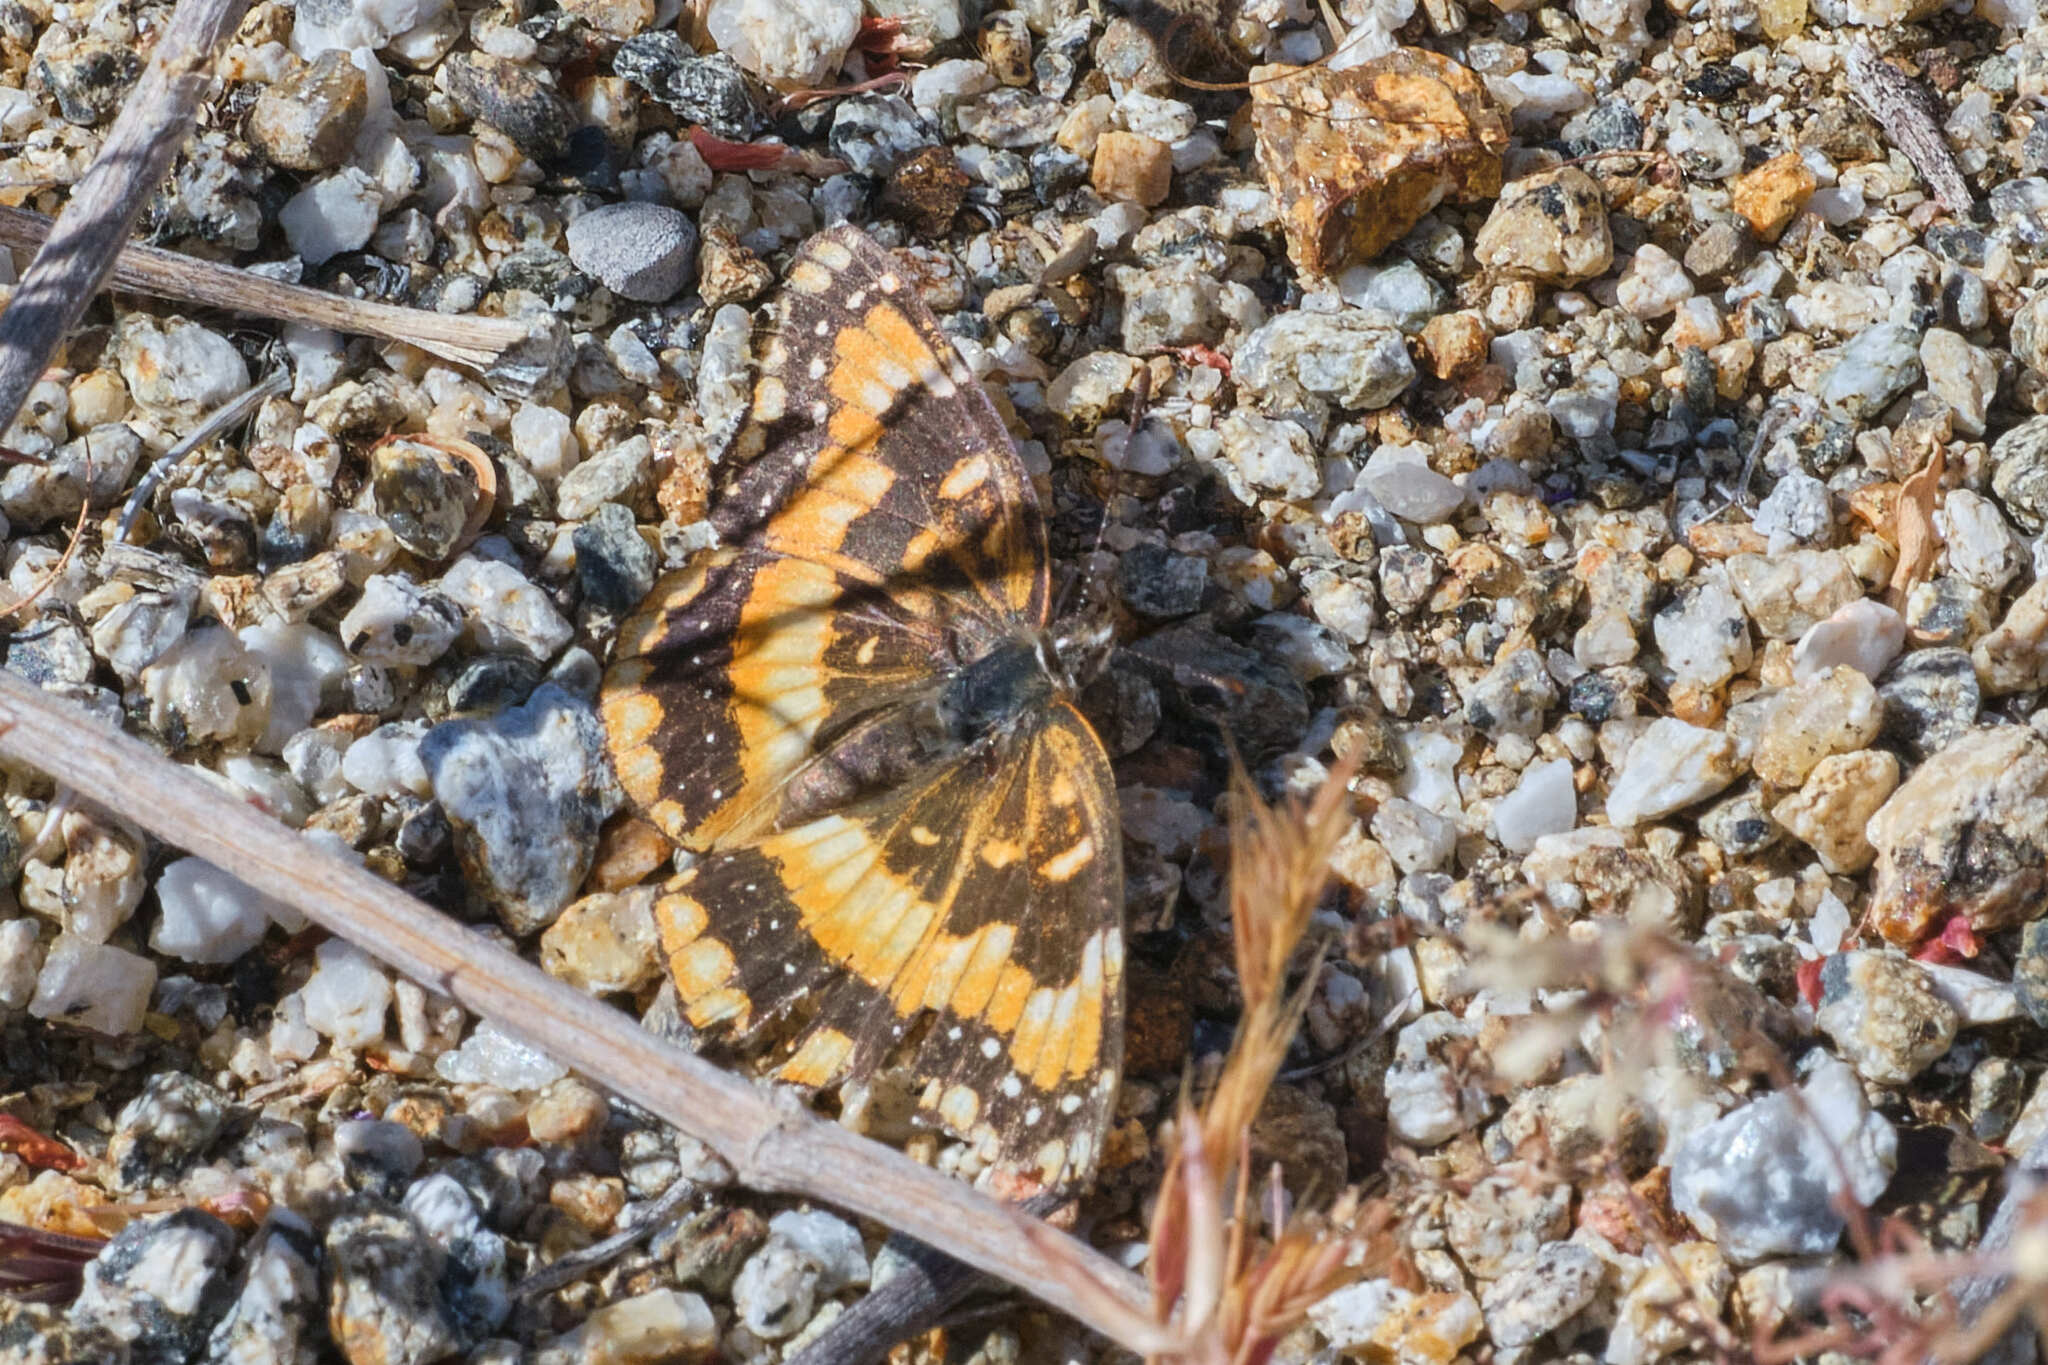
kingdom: Animalia
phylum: Arthropoda
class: Insecta
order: Lepidoptera
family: Nymphalidae
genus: Chlosyne
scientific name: Chlosyne californica
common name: California patch
